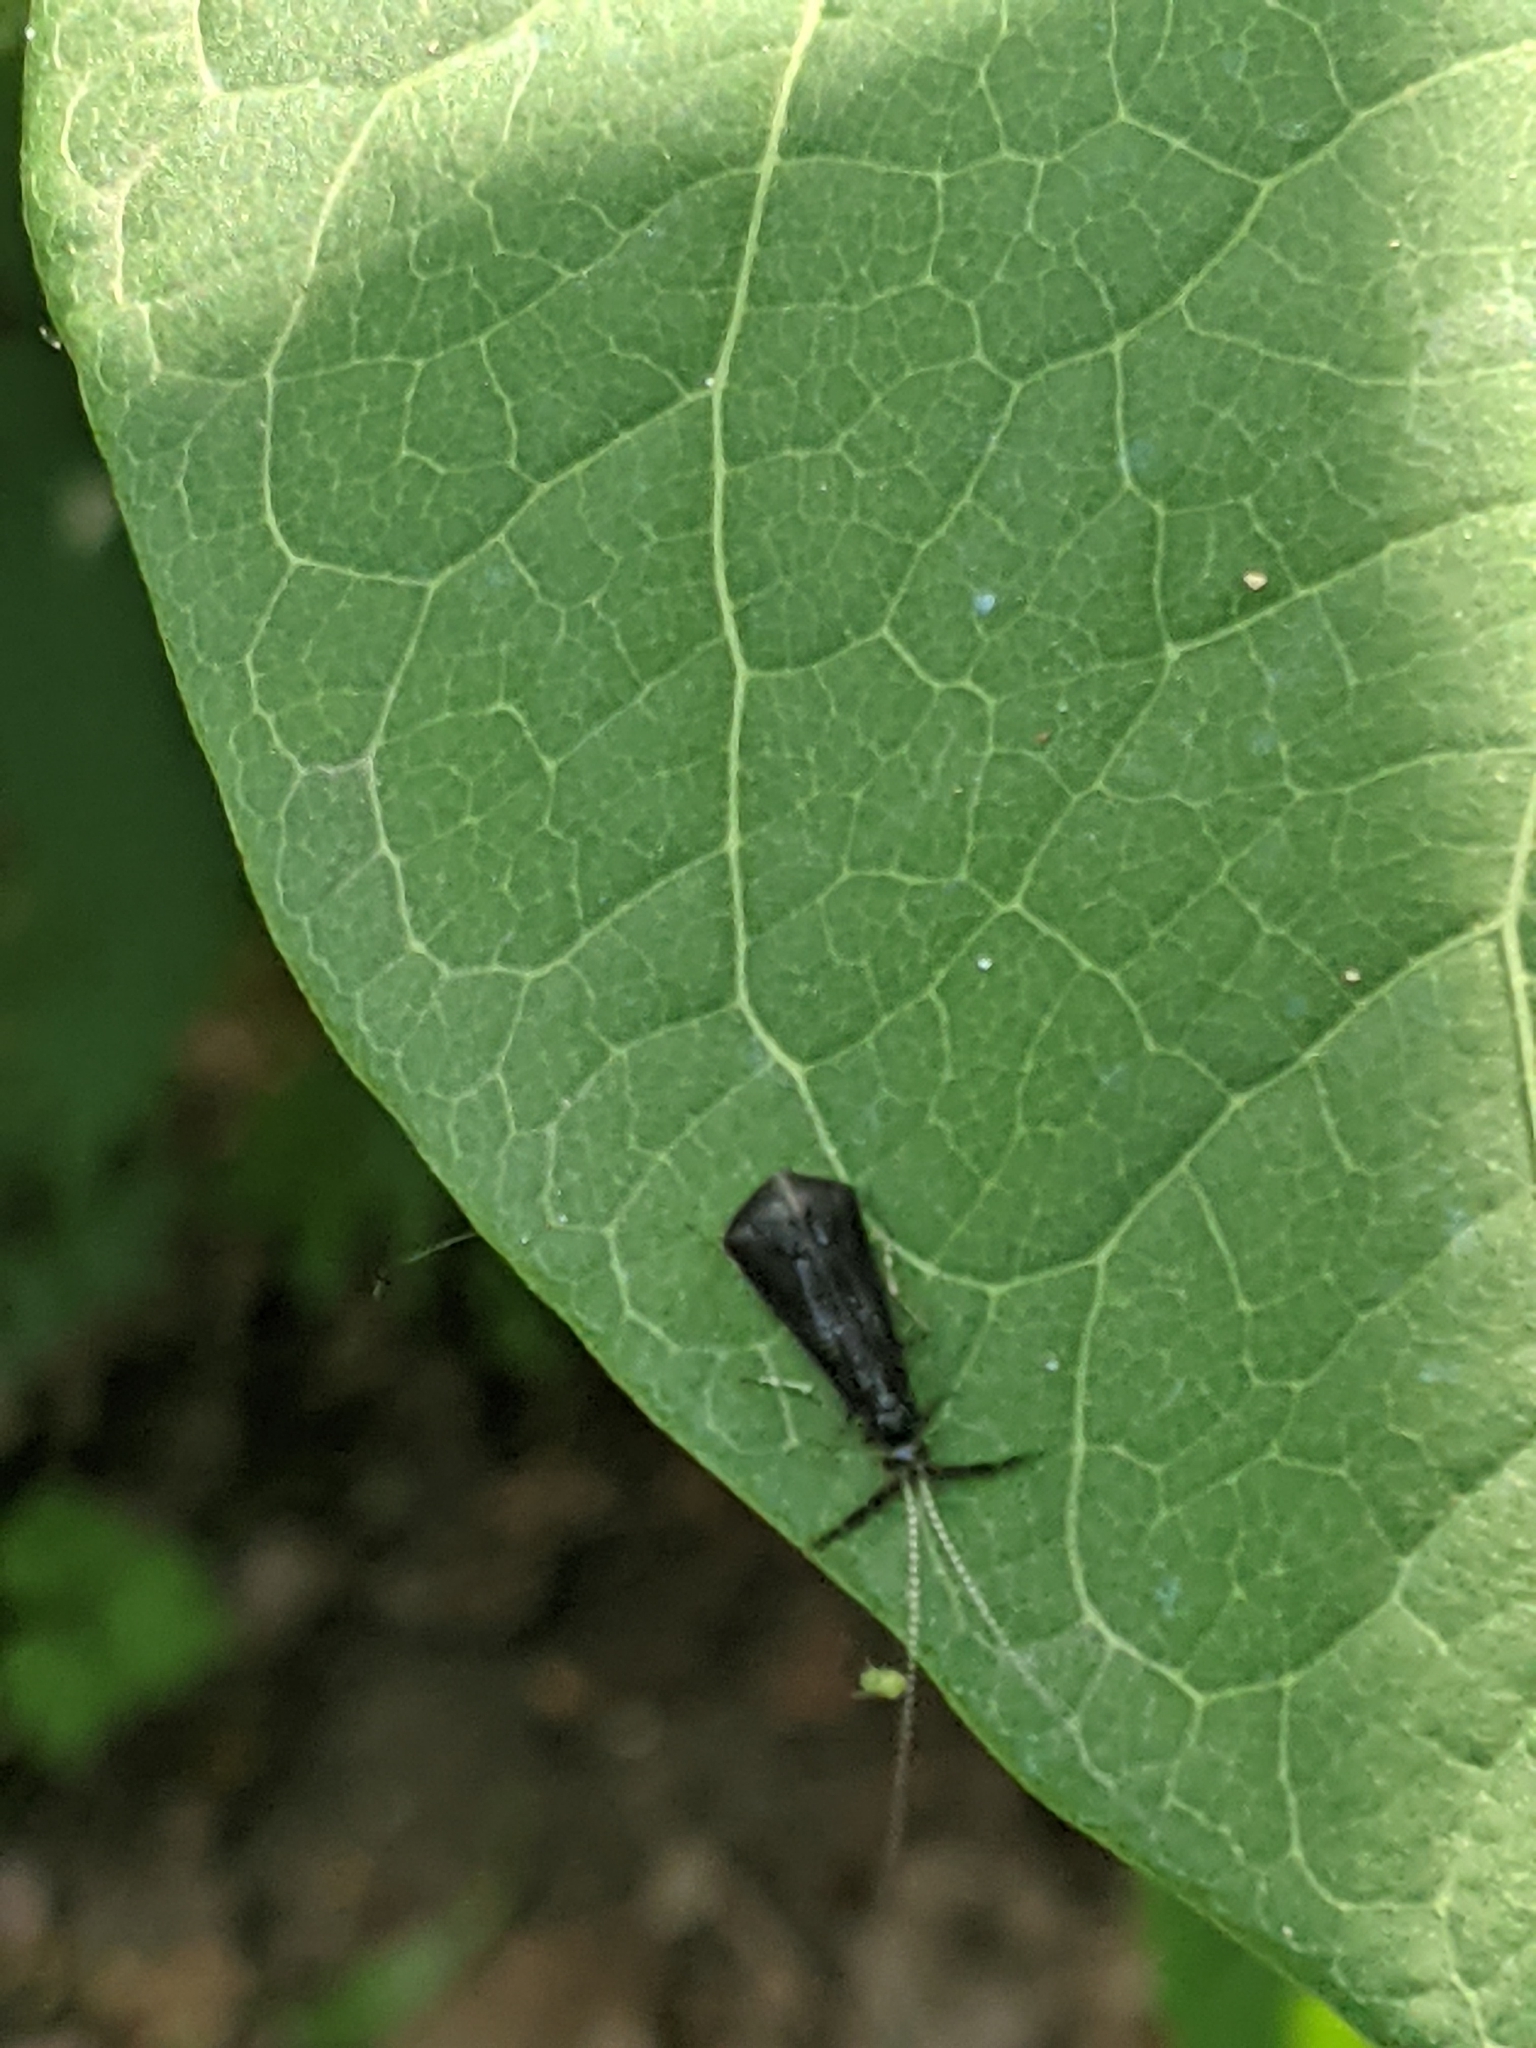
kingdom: Animalia
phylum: Arthropoda
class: Insecta
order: Trichoptera
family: Leptoceridae
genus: Mystacides
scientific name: Mystacides sepulchralis
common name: Black dancer caddisfly
